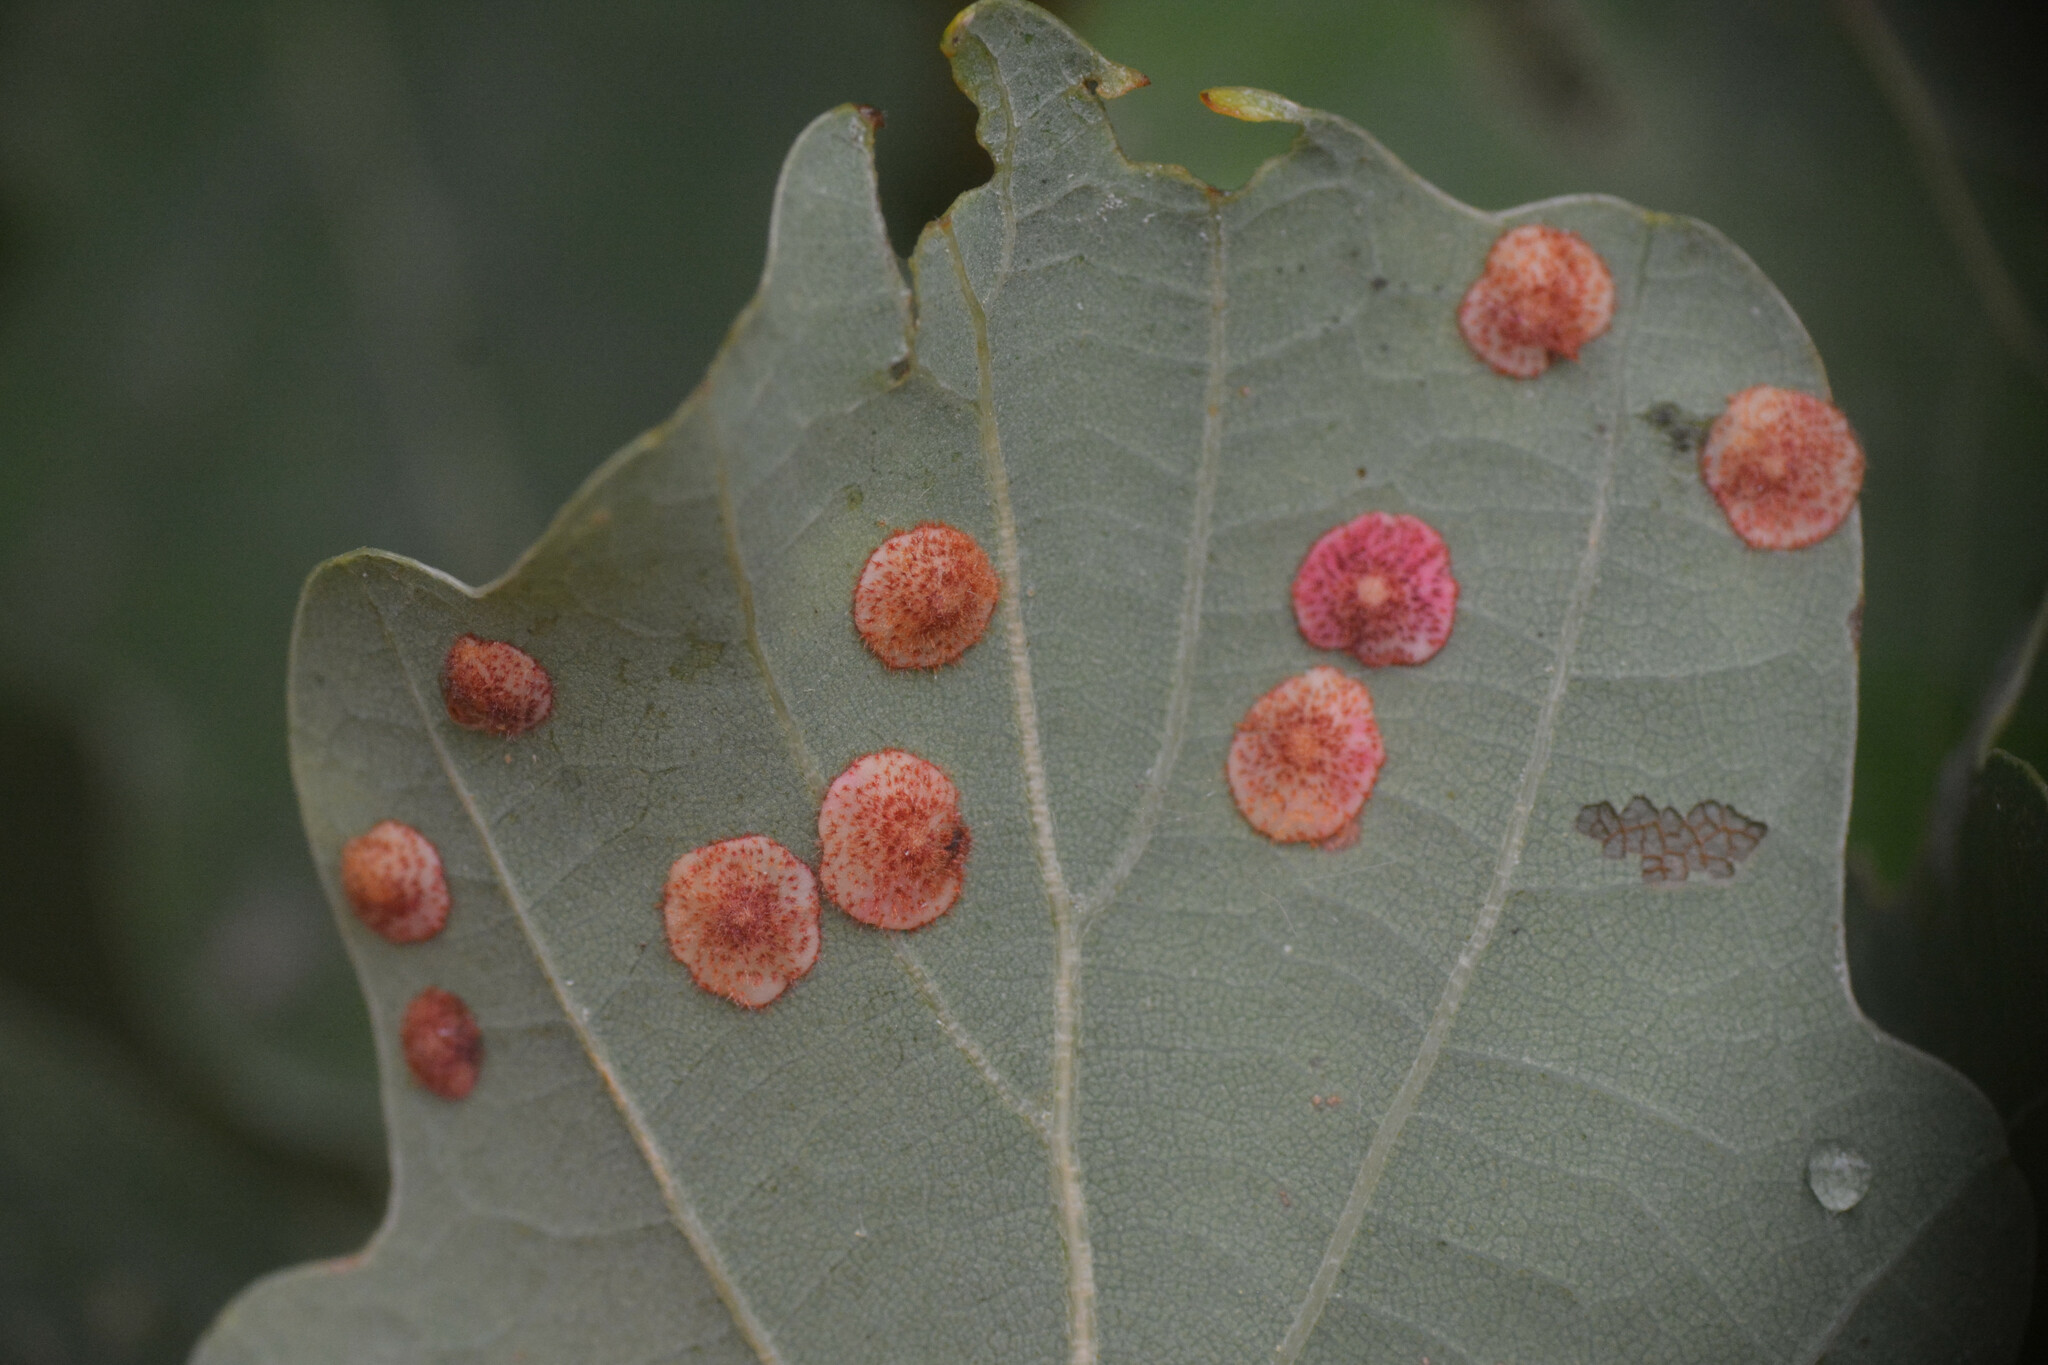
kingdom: Animalia
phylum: Arthropoda
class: Insecta
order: Hymenoptera
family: Cynipidae
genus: Neuroterus
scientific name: Neuroterus quercusbaccarum
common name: Common spangle gall
